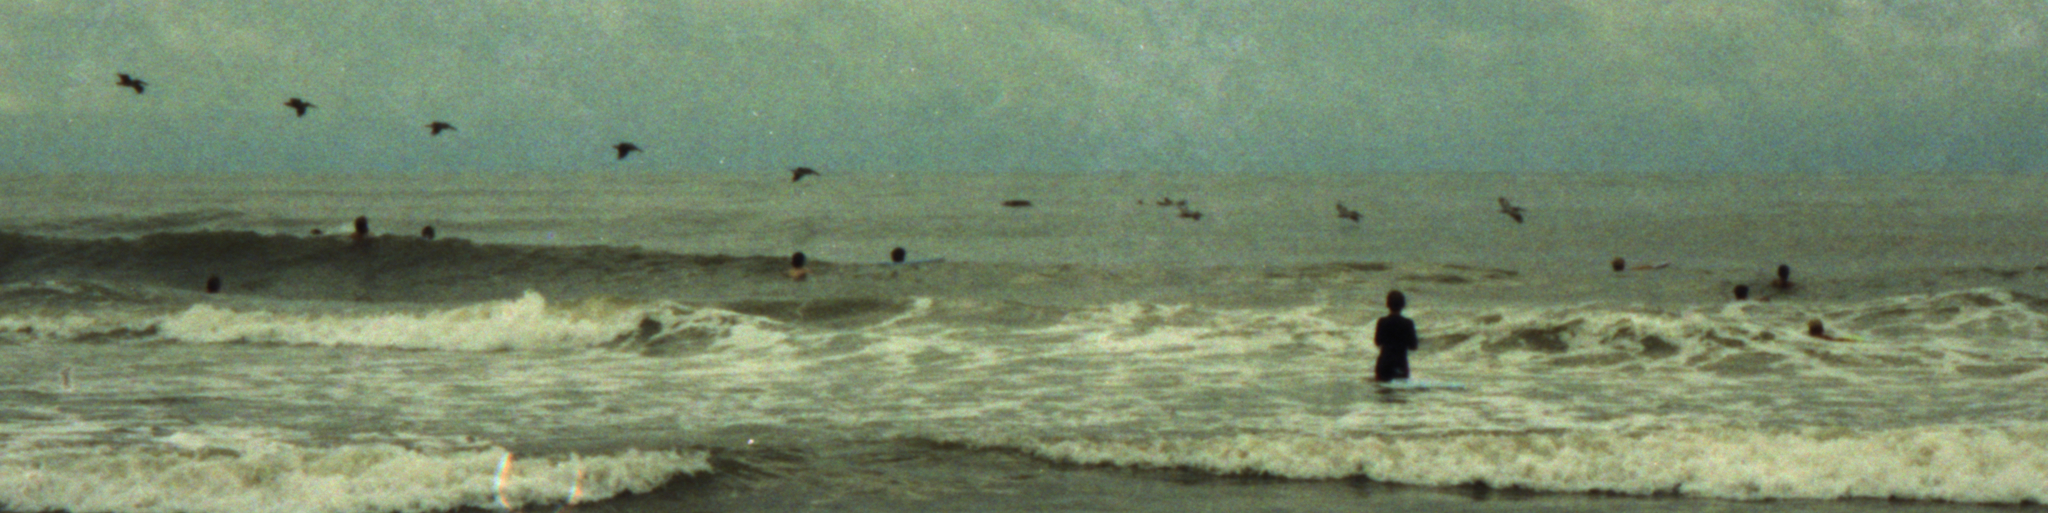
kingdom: Animalia
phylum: Chordata
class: Aves
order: Pelecaniformes
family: Pelecanidae
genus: Pelecanus
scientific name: Pelecanus occidentalis
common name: Brown pelican
